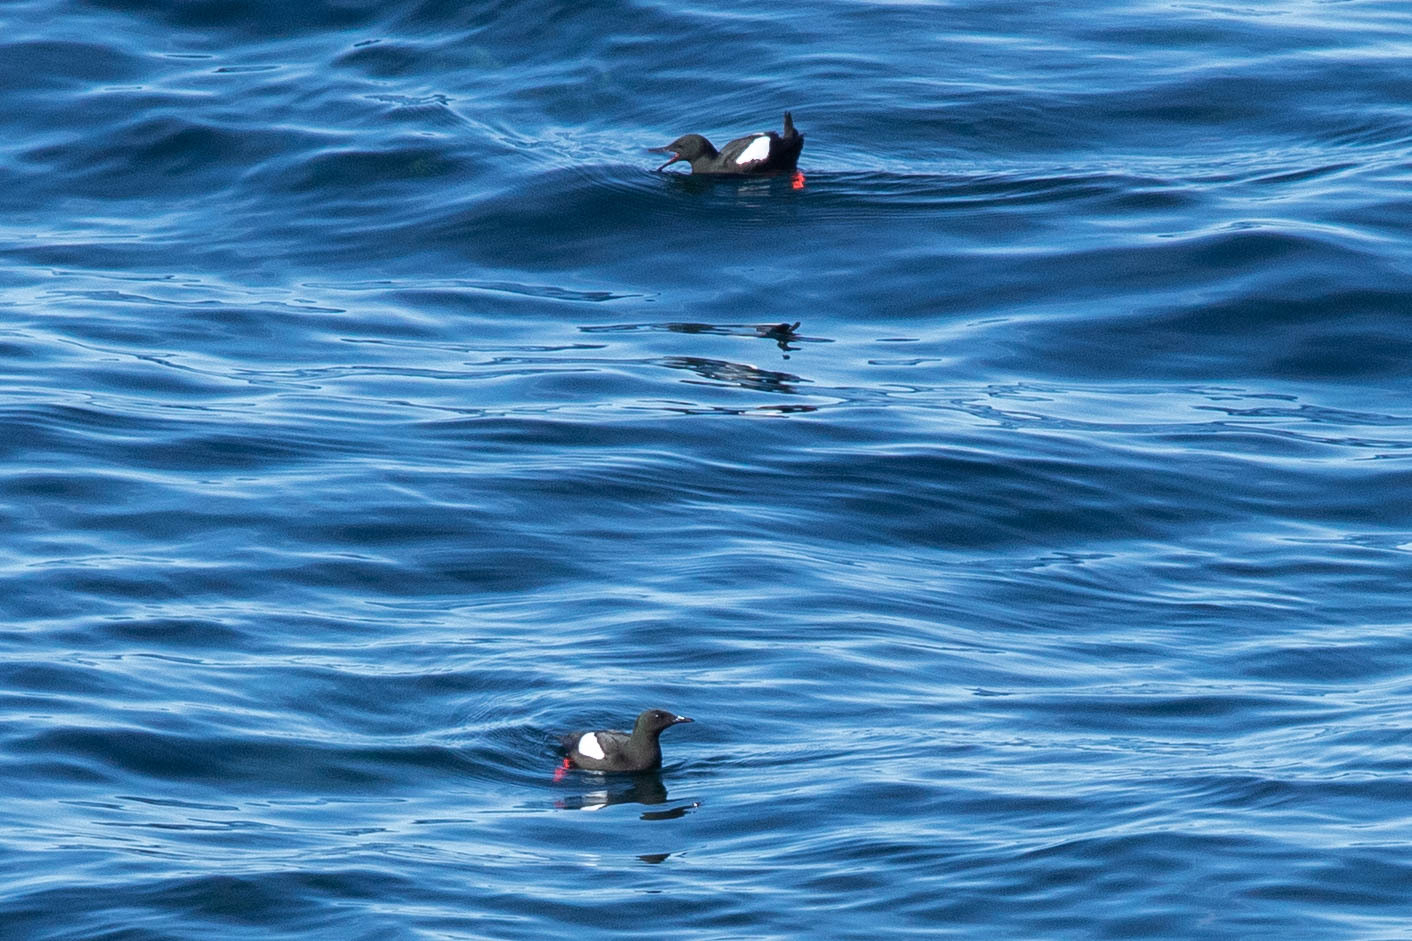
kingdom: Animalia
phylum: Chordata
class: Aves
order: Charadriiformes
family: Alcidae
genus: Cepphus
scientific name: Cepphus grylle
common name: Black guillemot
